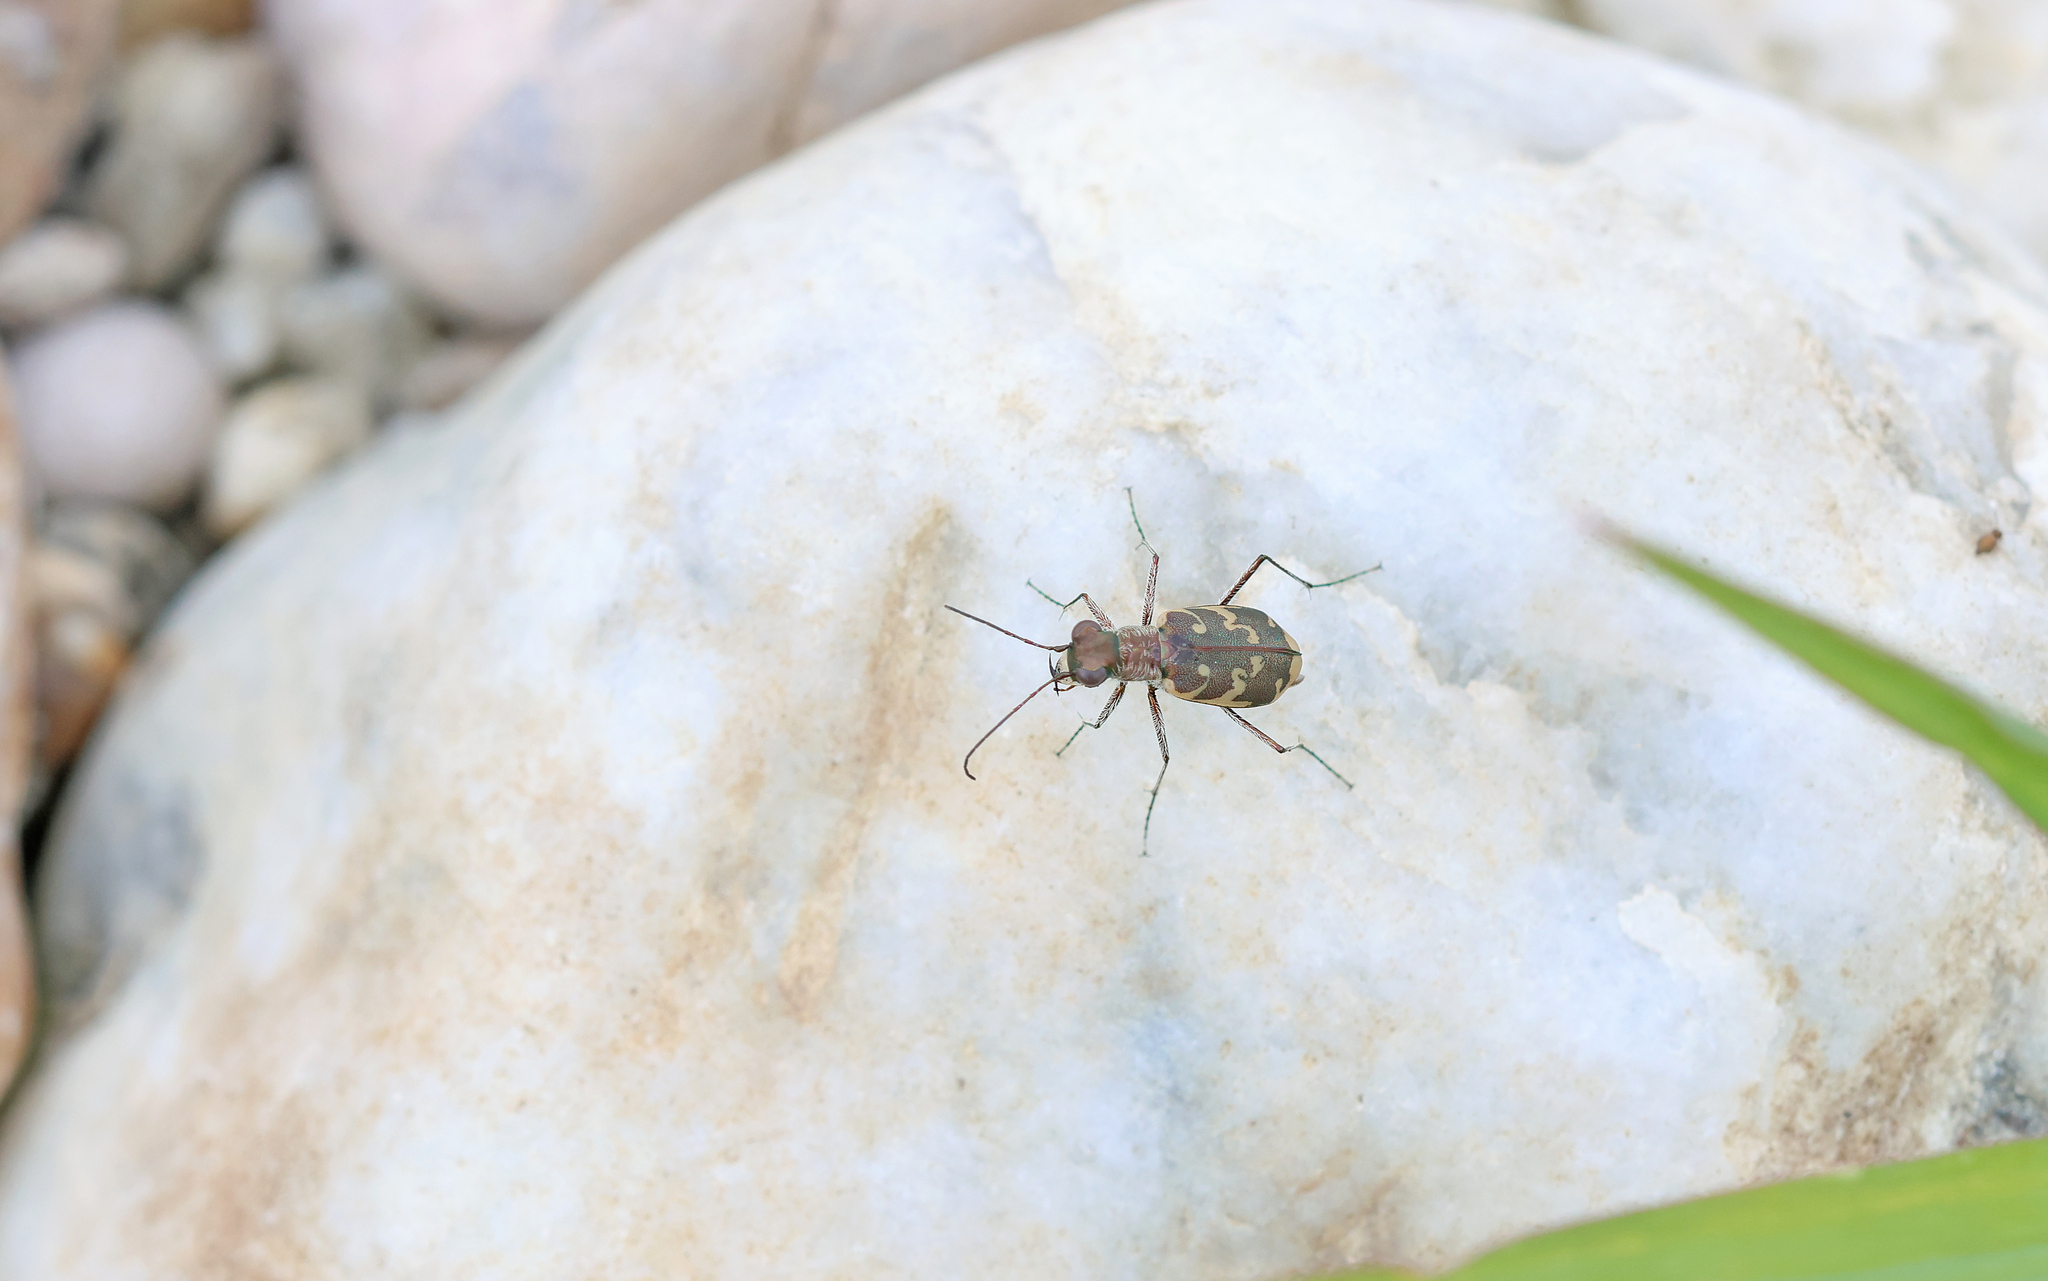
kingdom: Animalia
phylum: Arthropoda
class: Insecta
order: Coleoptera
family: Carabidae
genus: Cylindera
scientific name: Cylindera arenaria
